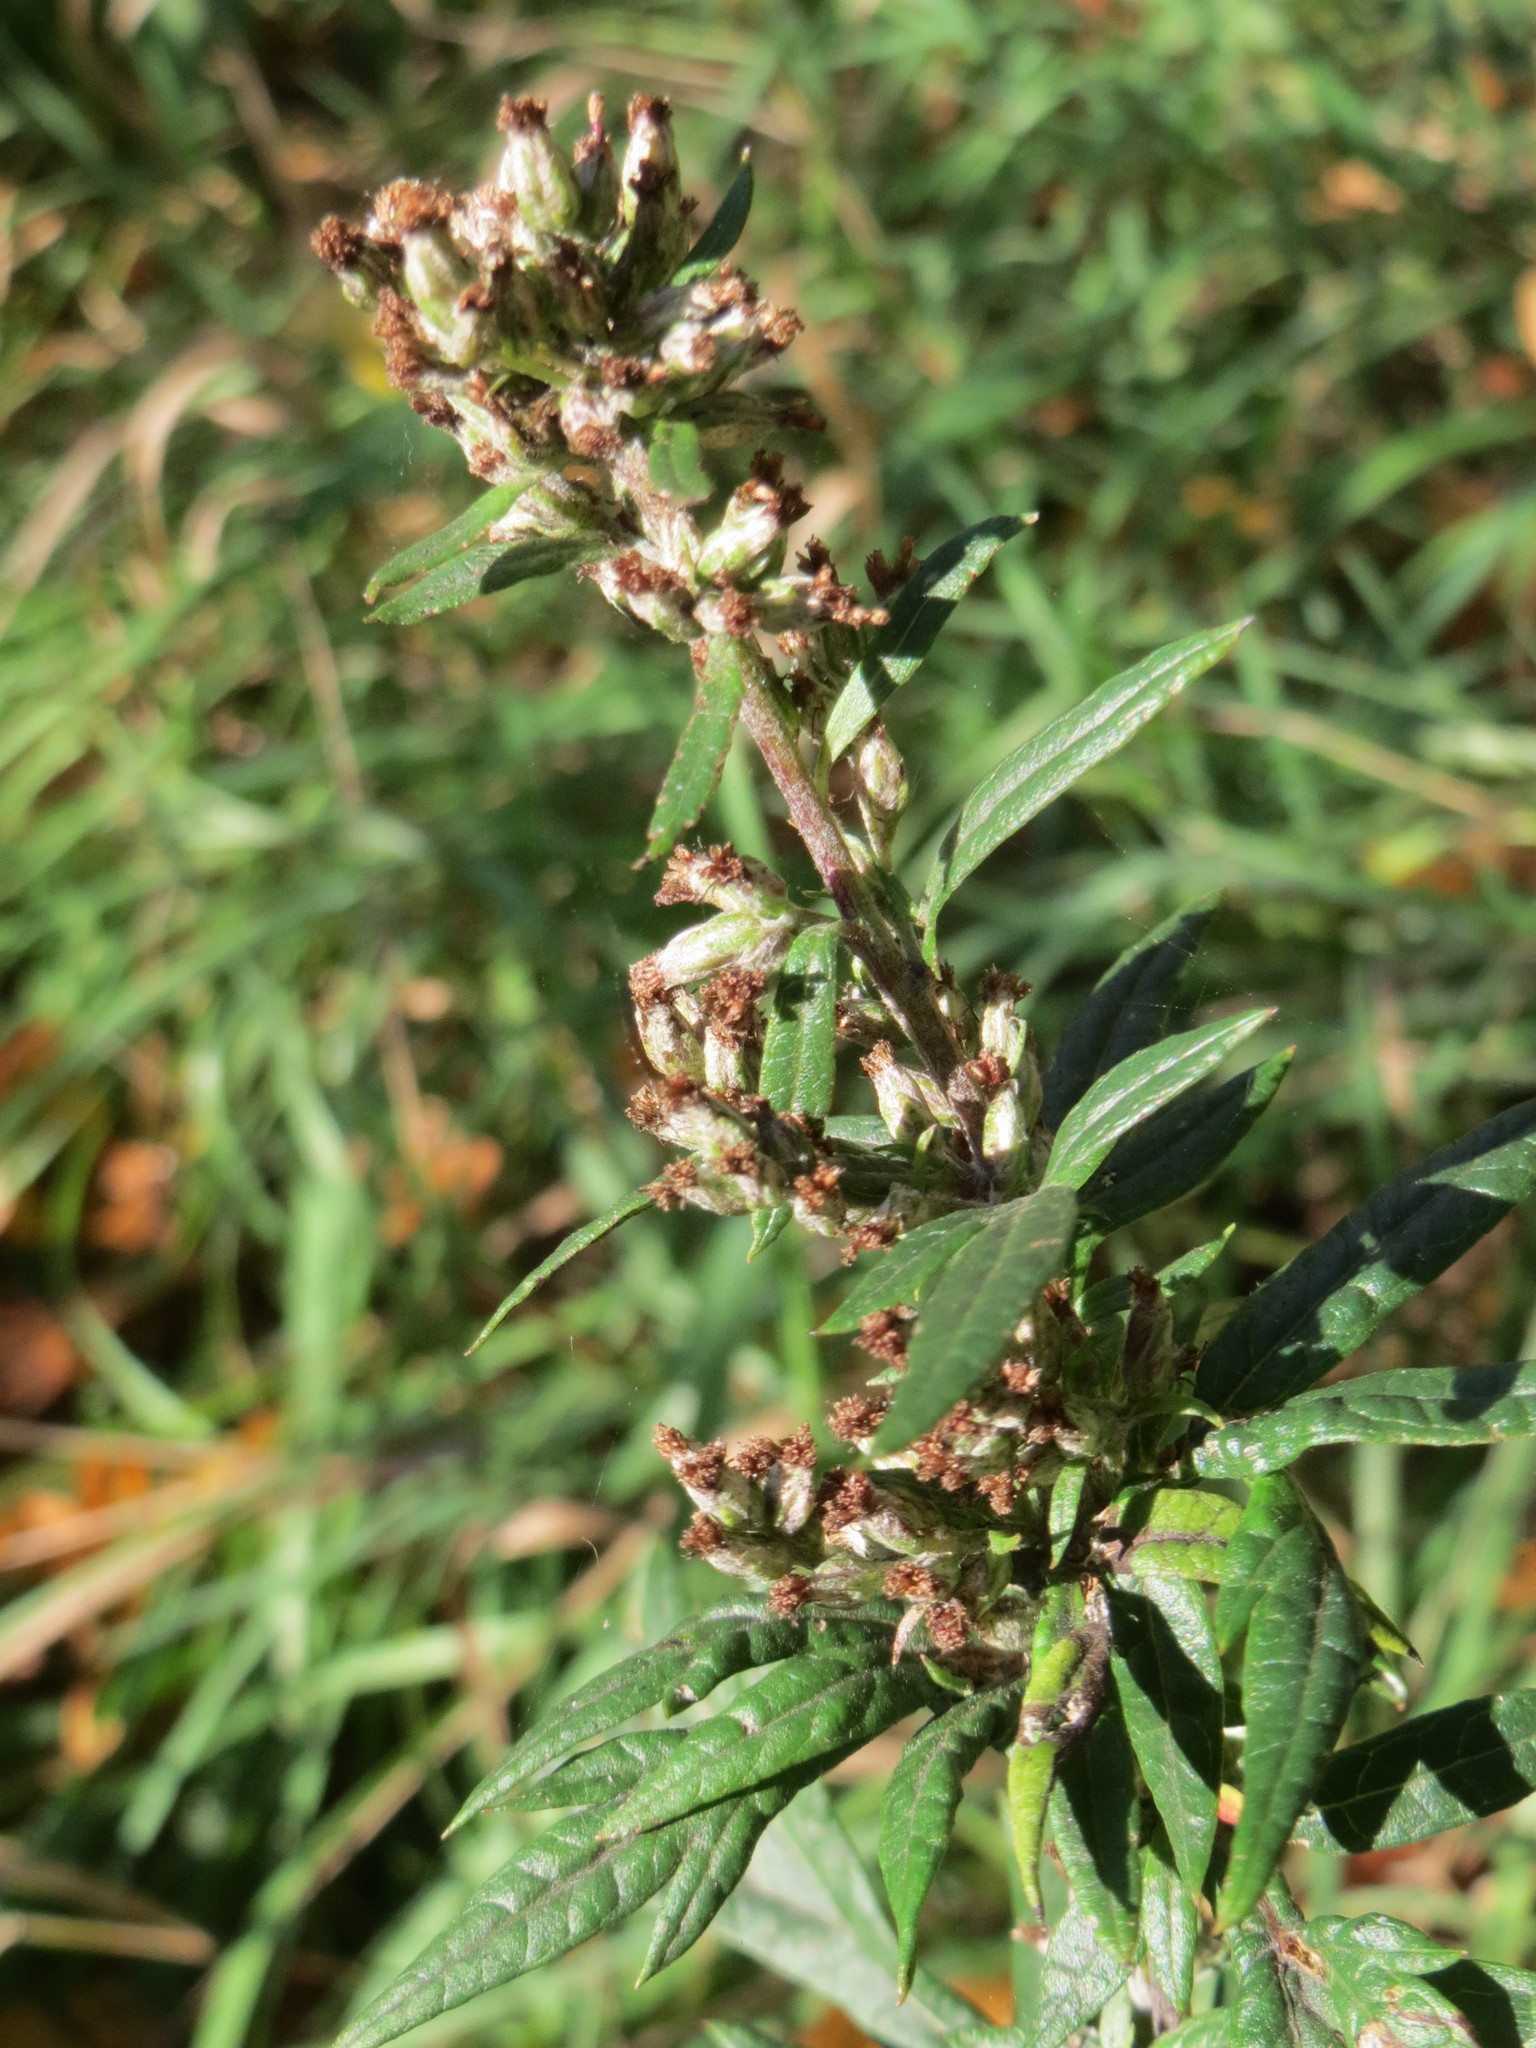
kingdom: Plantae
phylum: Tracheophyta
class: Magnoliopsida
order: Asterales
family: Asteraceae
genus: Artemisia
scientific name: Artemisia vulgaris
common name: Mugwort
